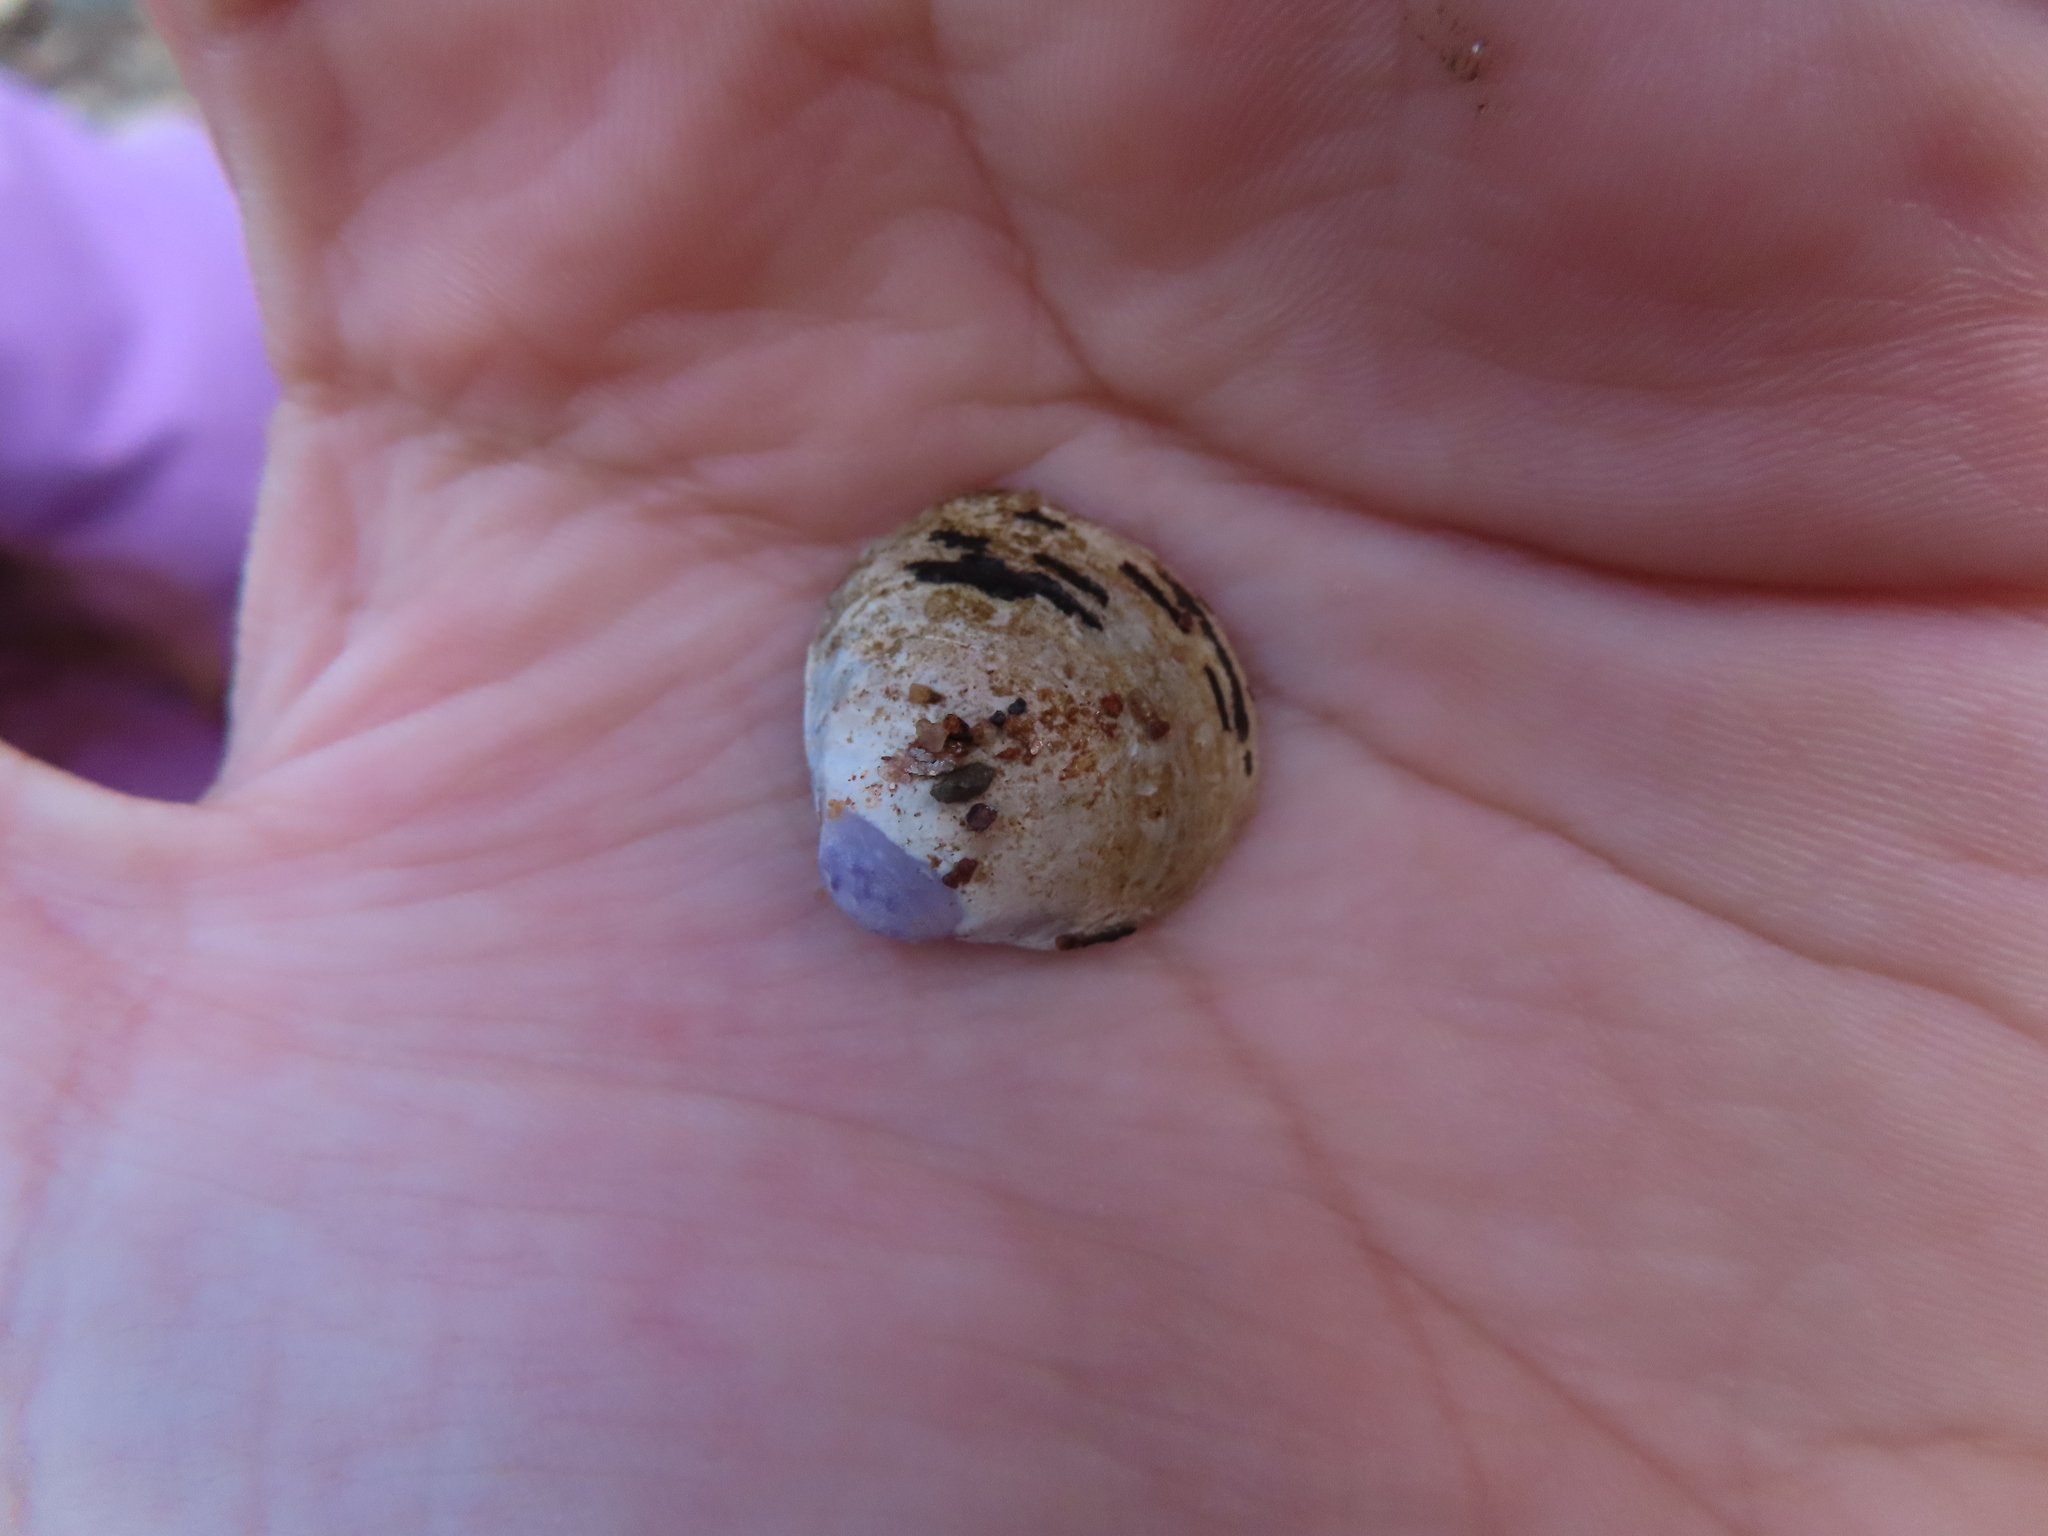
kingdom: Animalia
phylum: Mollusca
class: Bivalvia
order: Venerida
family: Cyrenidae
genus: Corbicula
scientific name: Corbicula fluminea
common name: Asian clam
